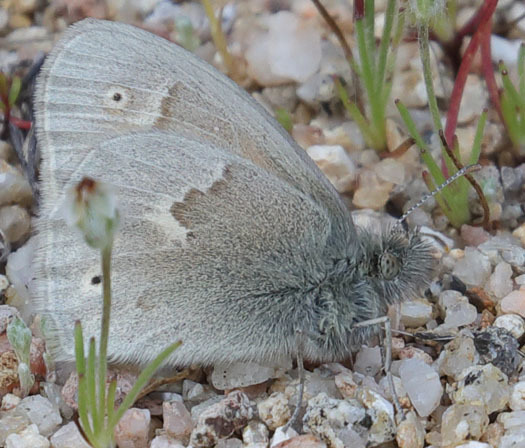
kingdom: Animalia
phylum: Arthropoda
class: Insecta
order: Lepidoptera
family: Nymphalidae
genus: Coenonympha
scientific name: Coenonympha california
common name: Common ringlet
